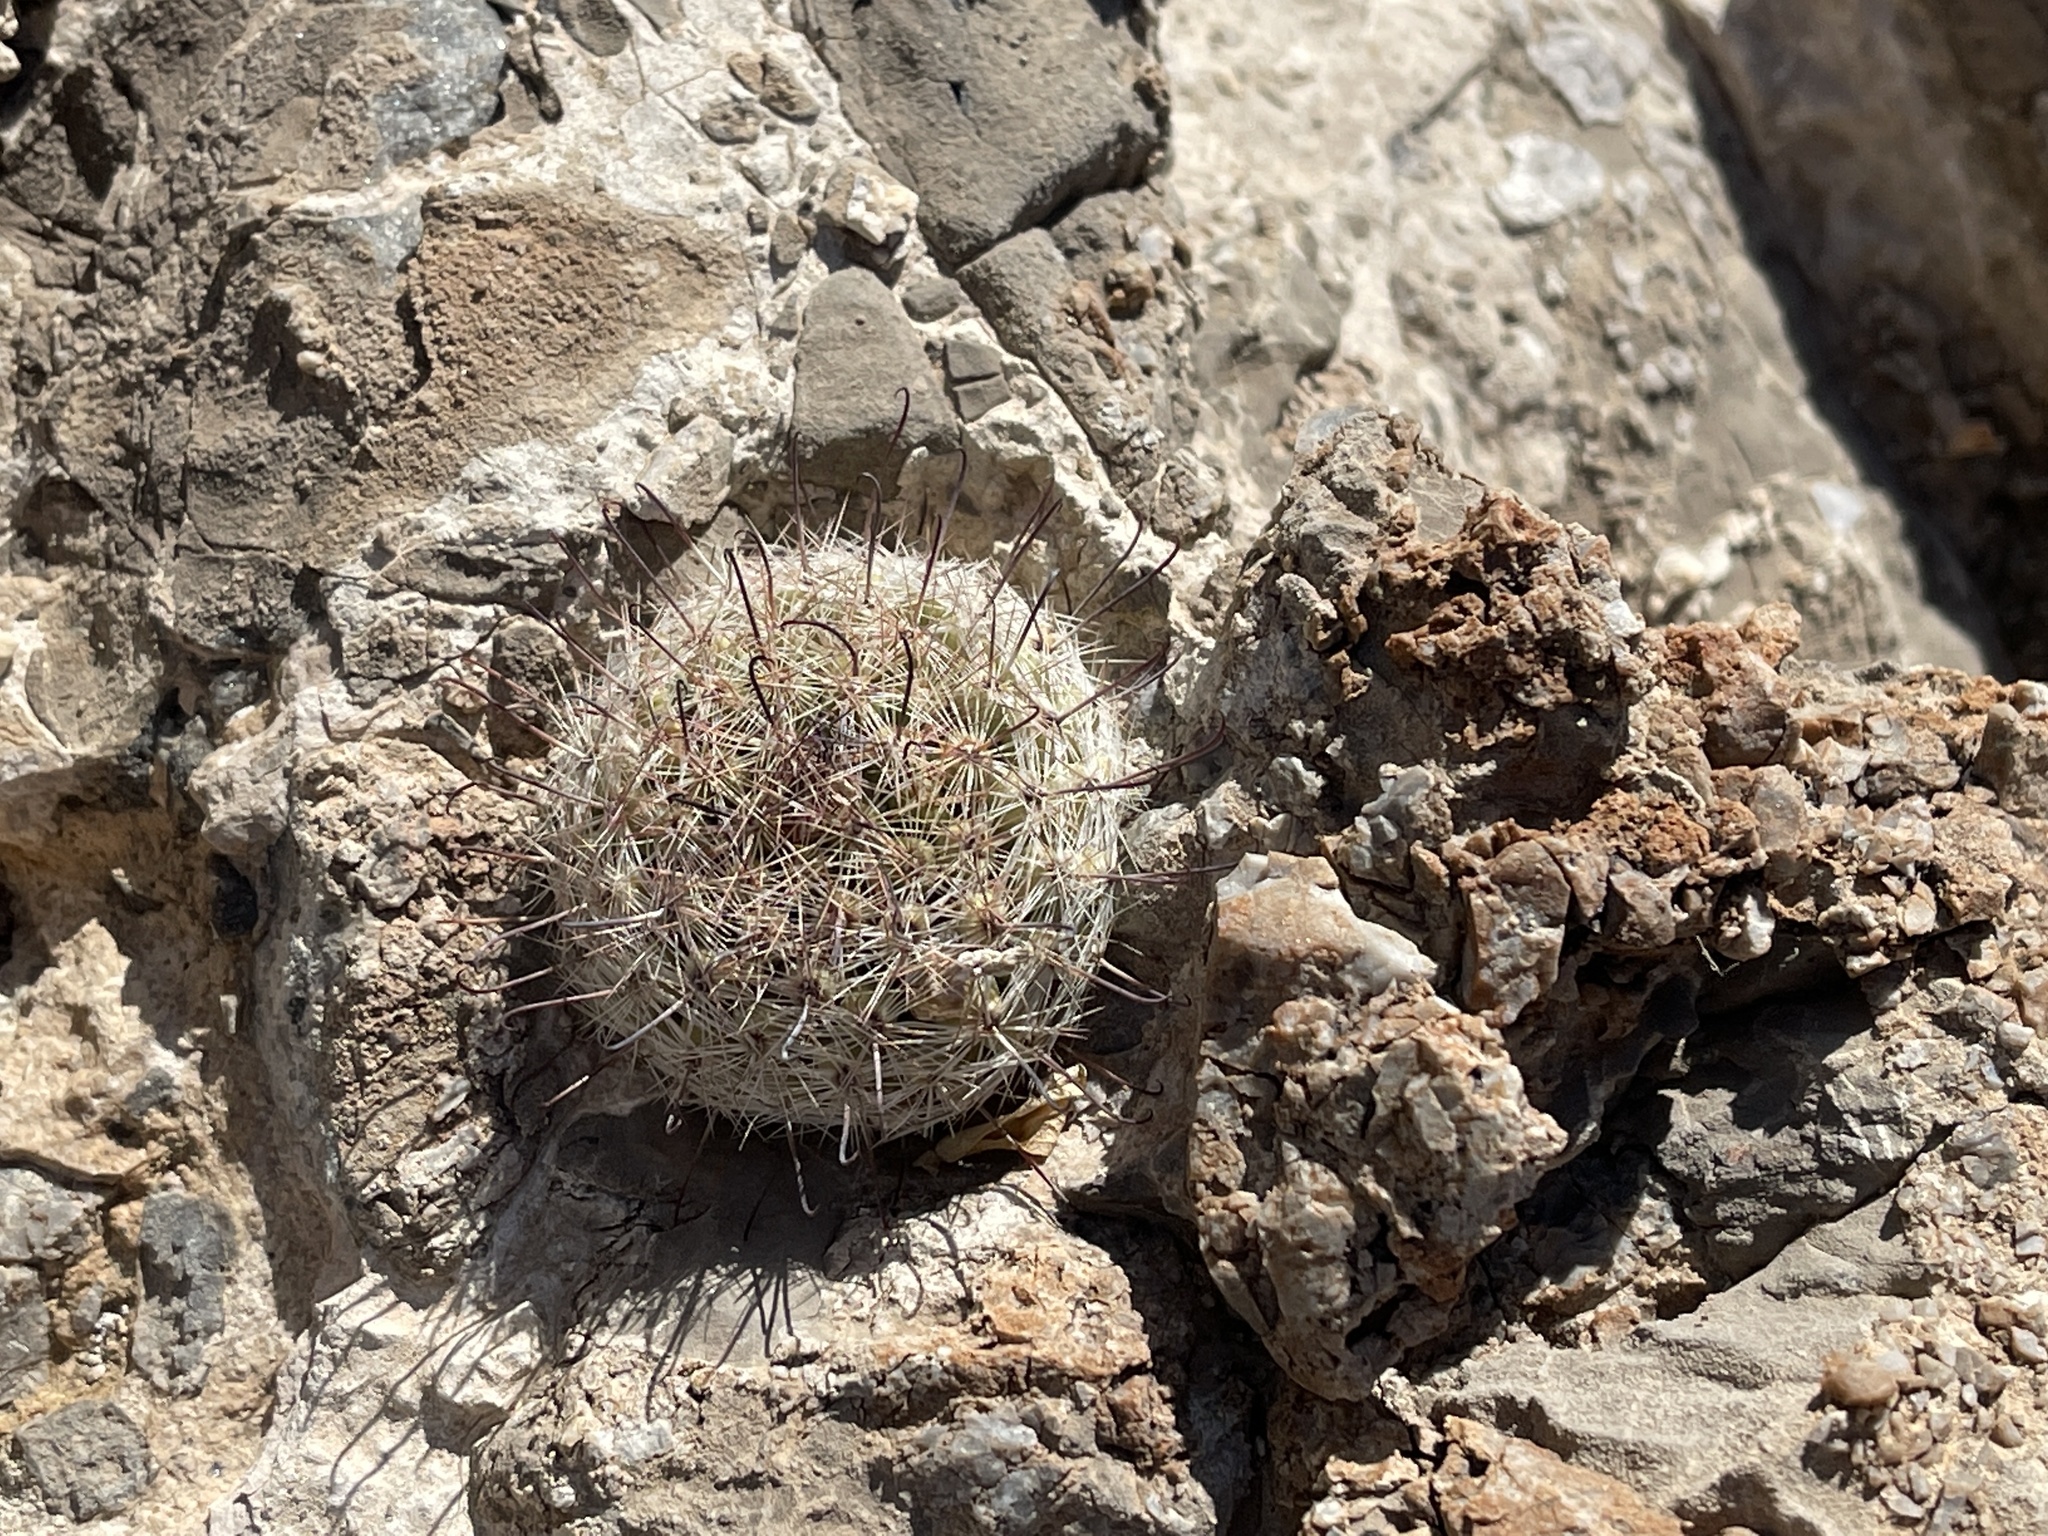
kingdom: Plantae
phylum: Tracheophyta
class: Magnoliopsida
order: Caryophyllales
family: Cactaceae
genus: Cochemiea
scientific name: Cochemiea grahamii
